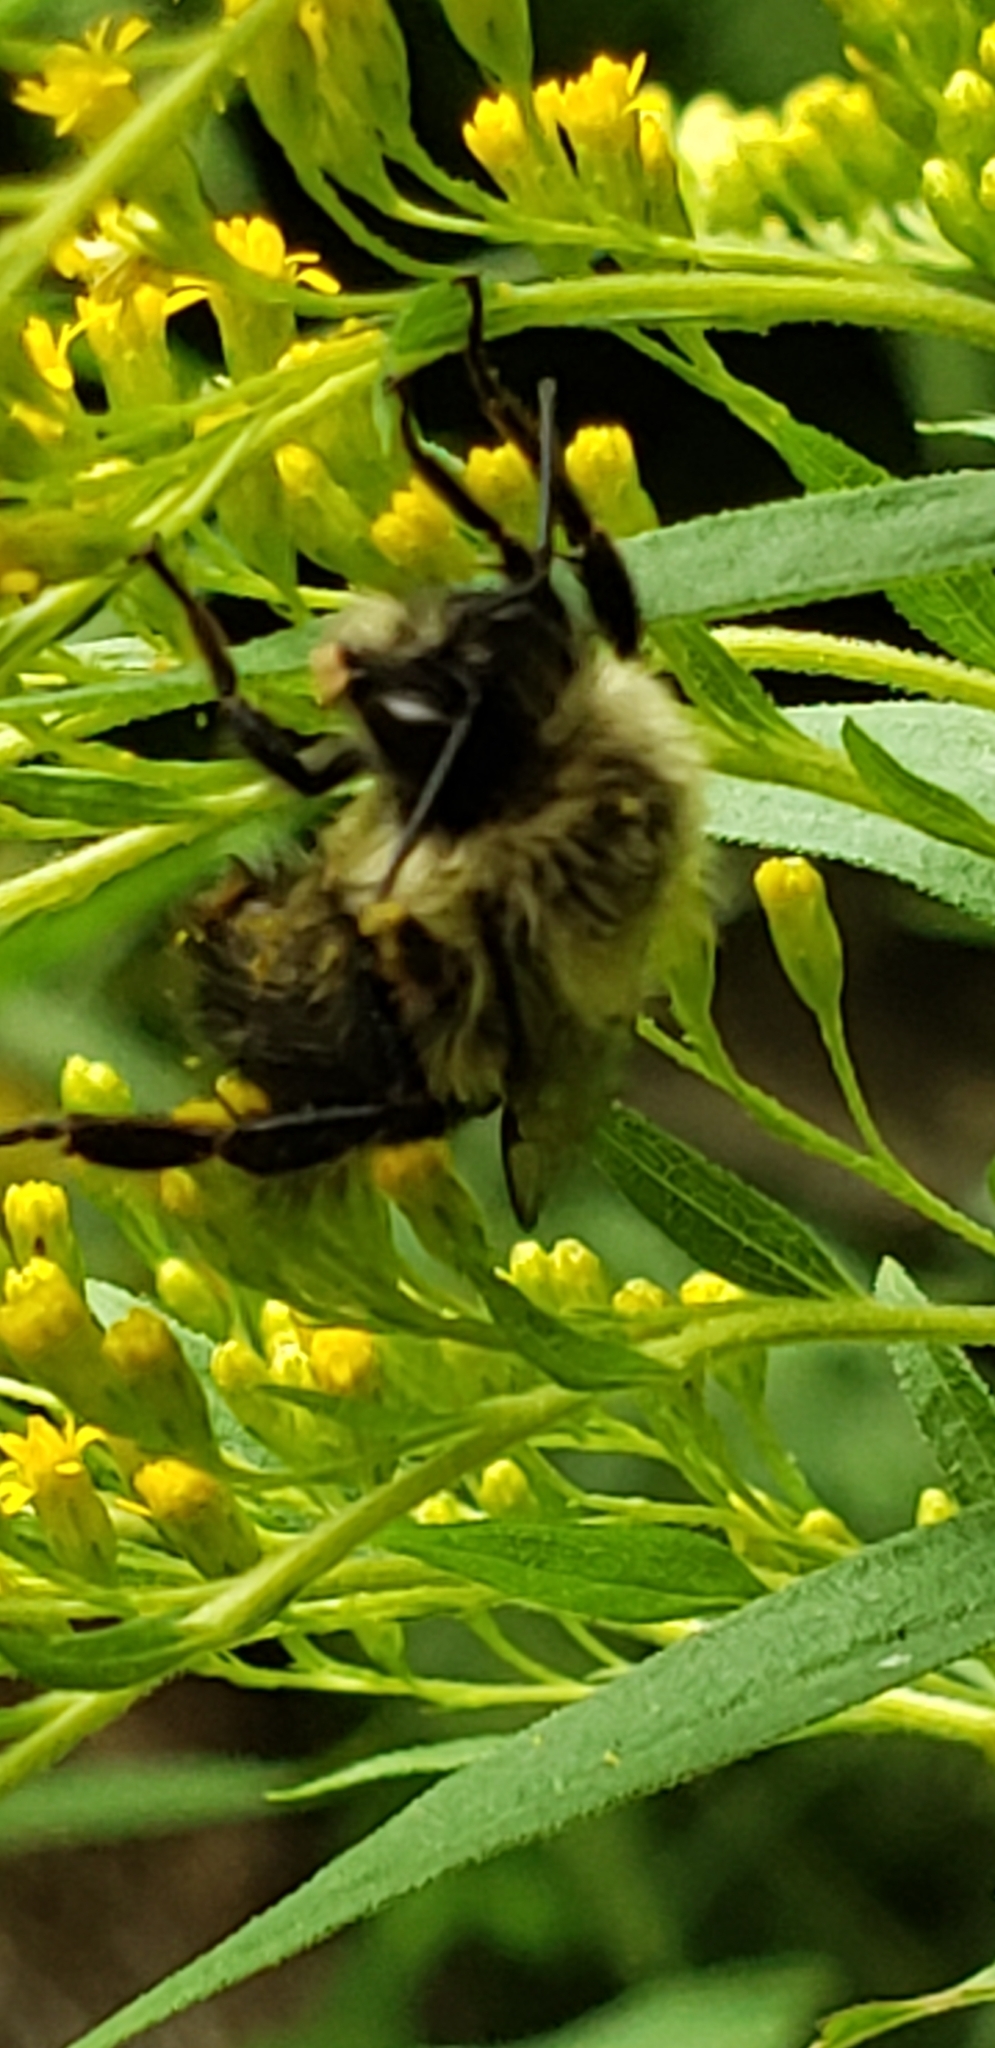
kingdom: Animalia
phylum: Arthropoda
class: Insecta
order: Hymenoptera
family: Apidae
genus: Bombus
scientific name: Bombus impatiens
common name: Common eastern bumble bee
